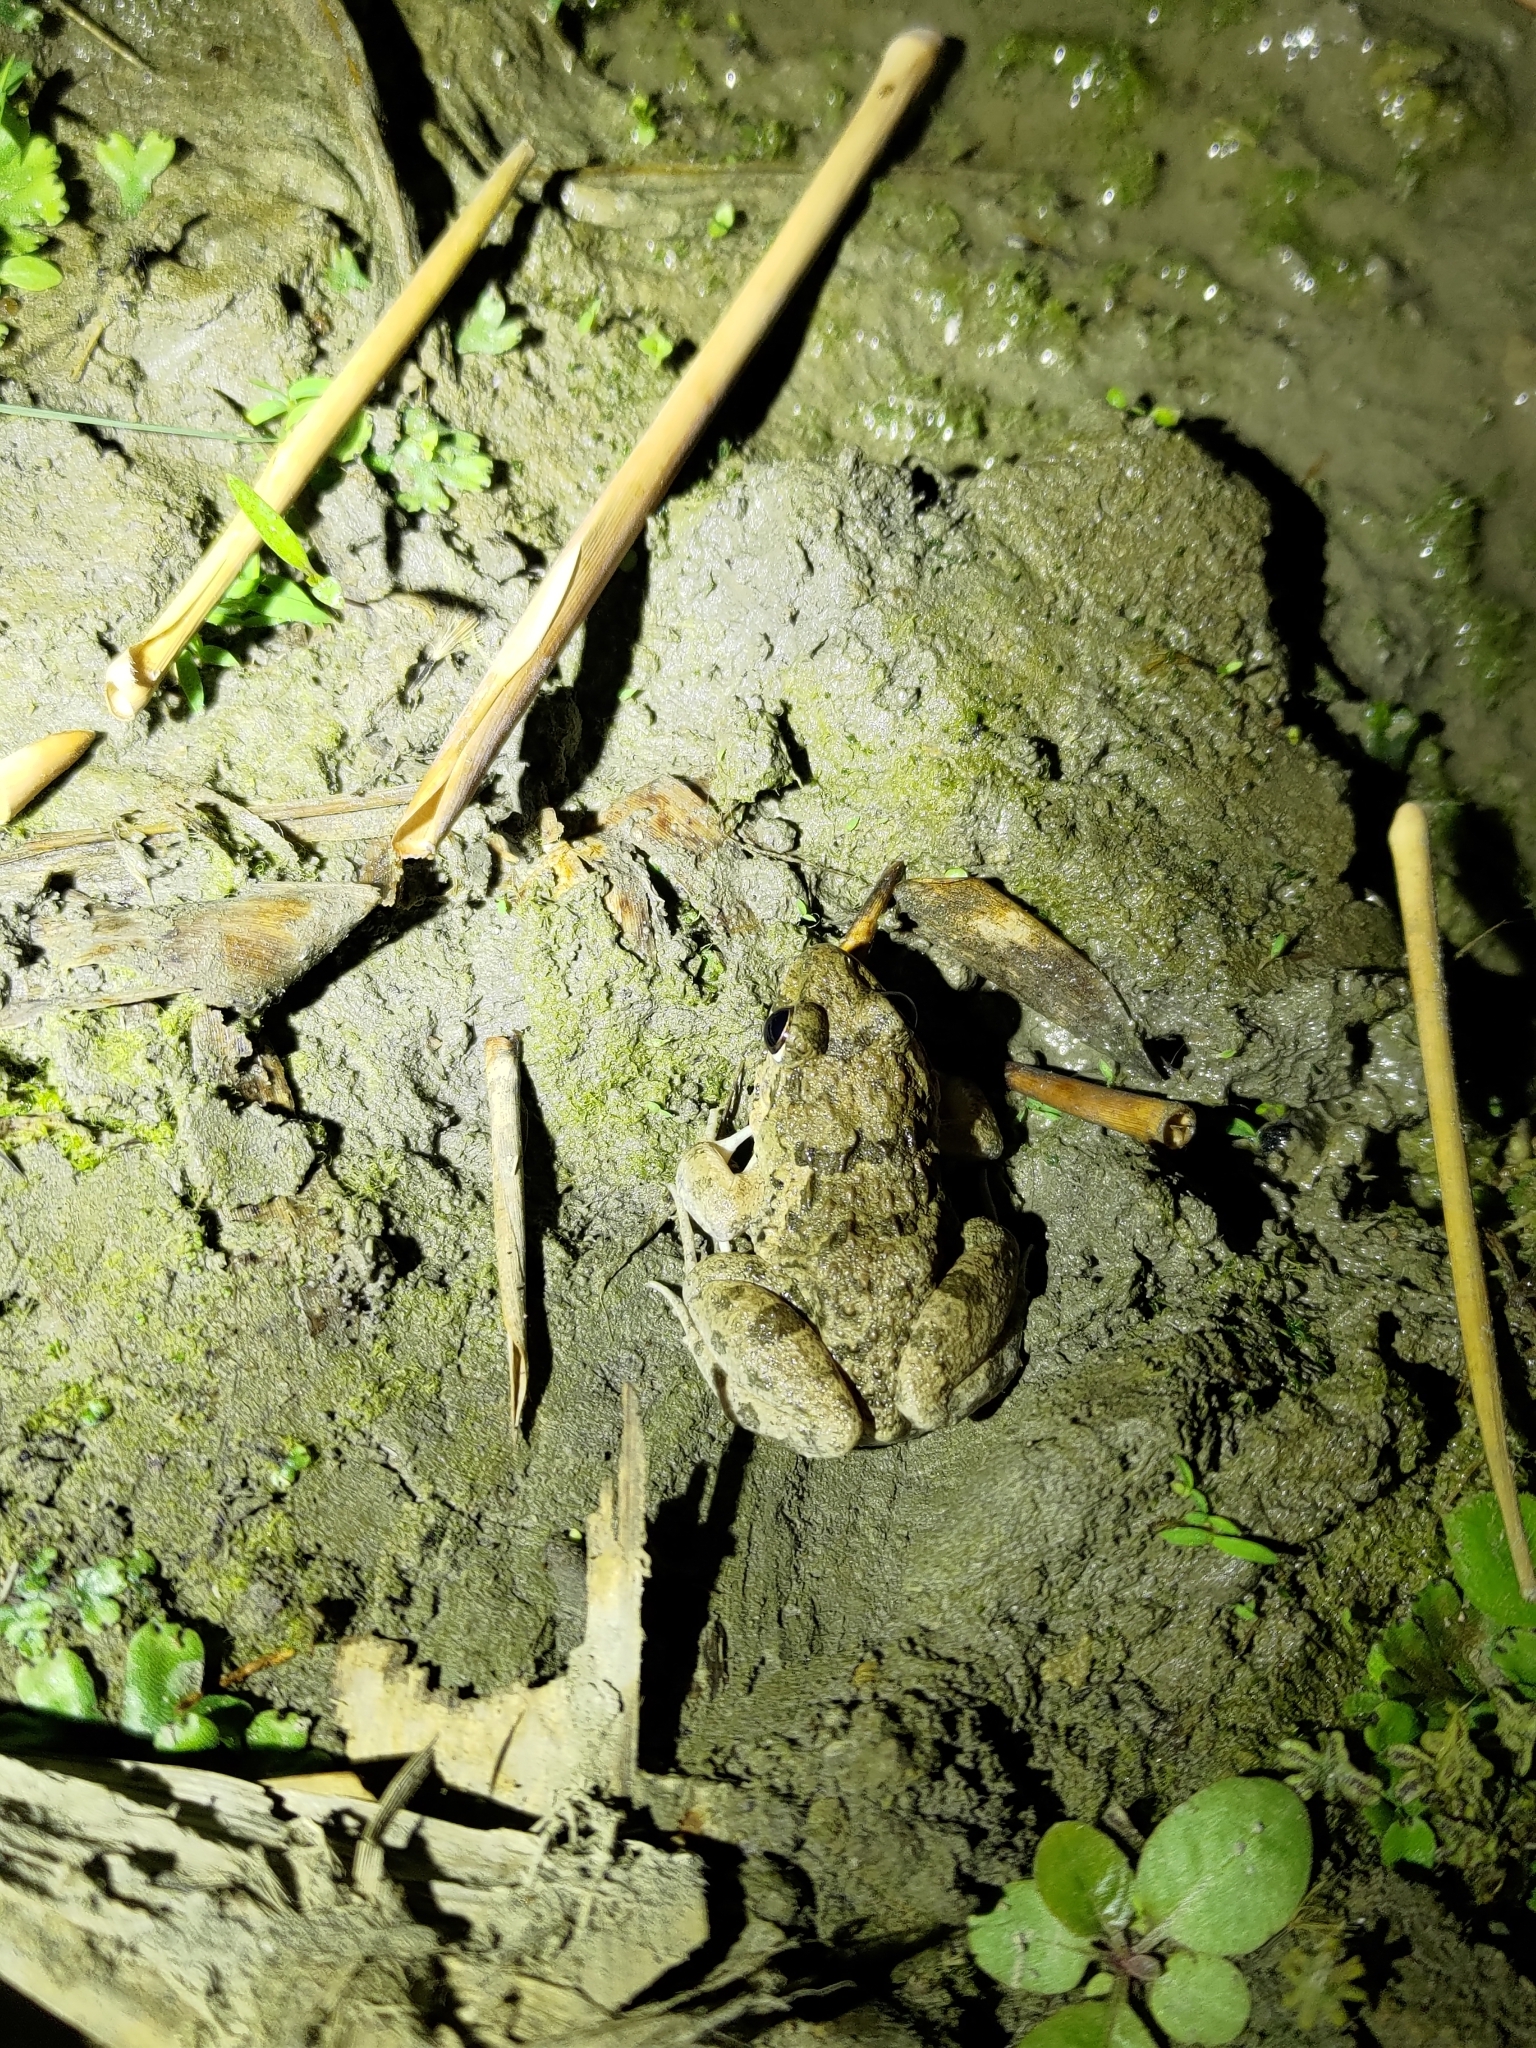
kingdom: Animalia
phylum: Chordata
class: Amphibia
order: Anura
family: Dicroglossidae
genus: Fejervarya
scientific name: Fejervarya limnocharis
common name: Asian grass frog/common pond frog/field frog/grass frog/indian rice frog
